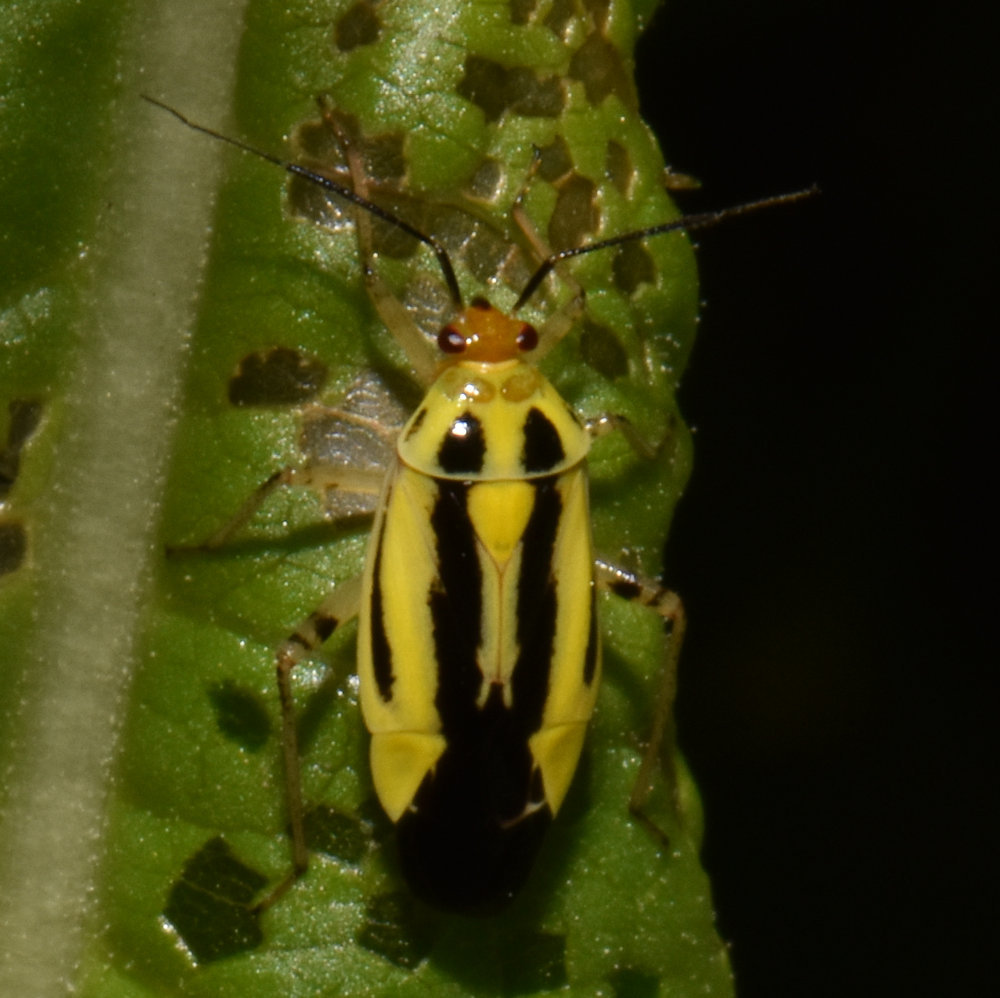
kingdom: Animalia
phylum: Arthropoda
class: Insecta
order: Hemiptera
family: Miridae
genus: Poecilocapsus
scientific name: Poecilocapsus lineatus
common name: Four-lined plant bug
